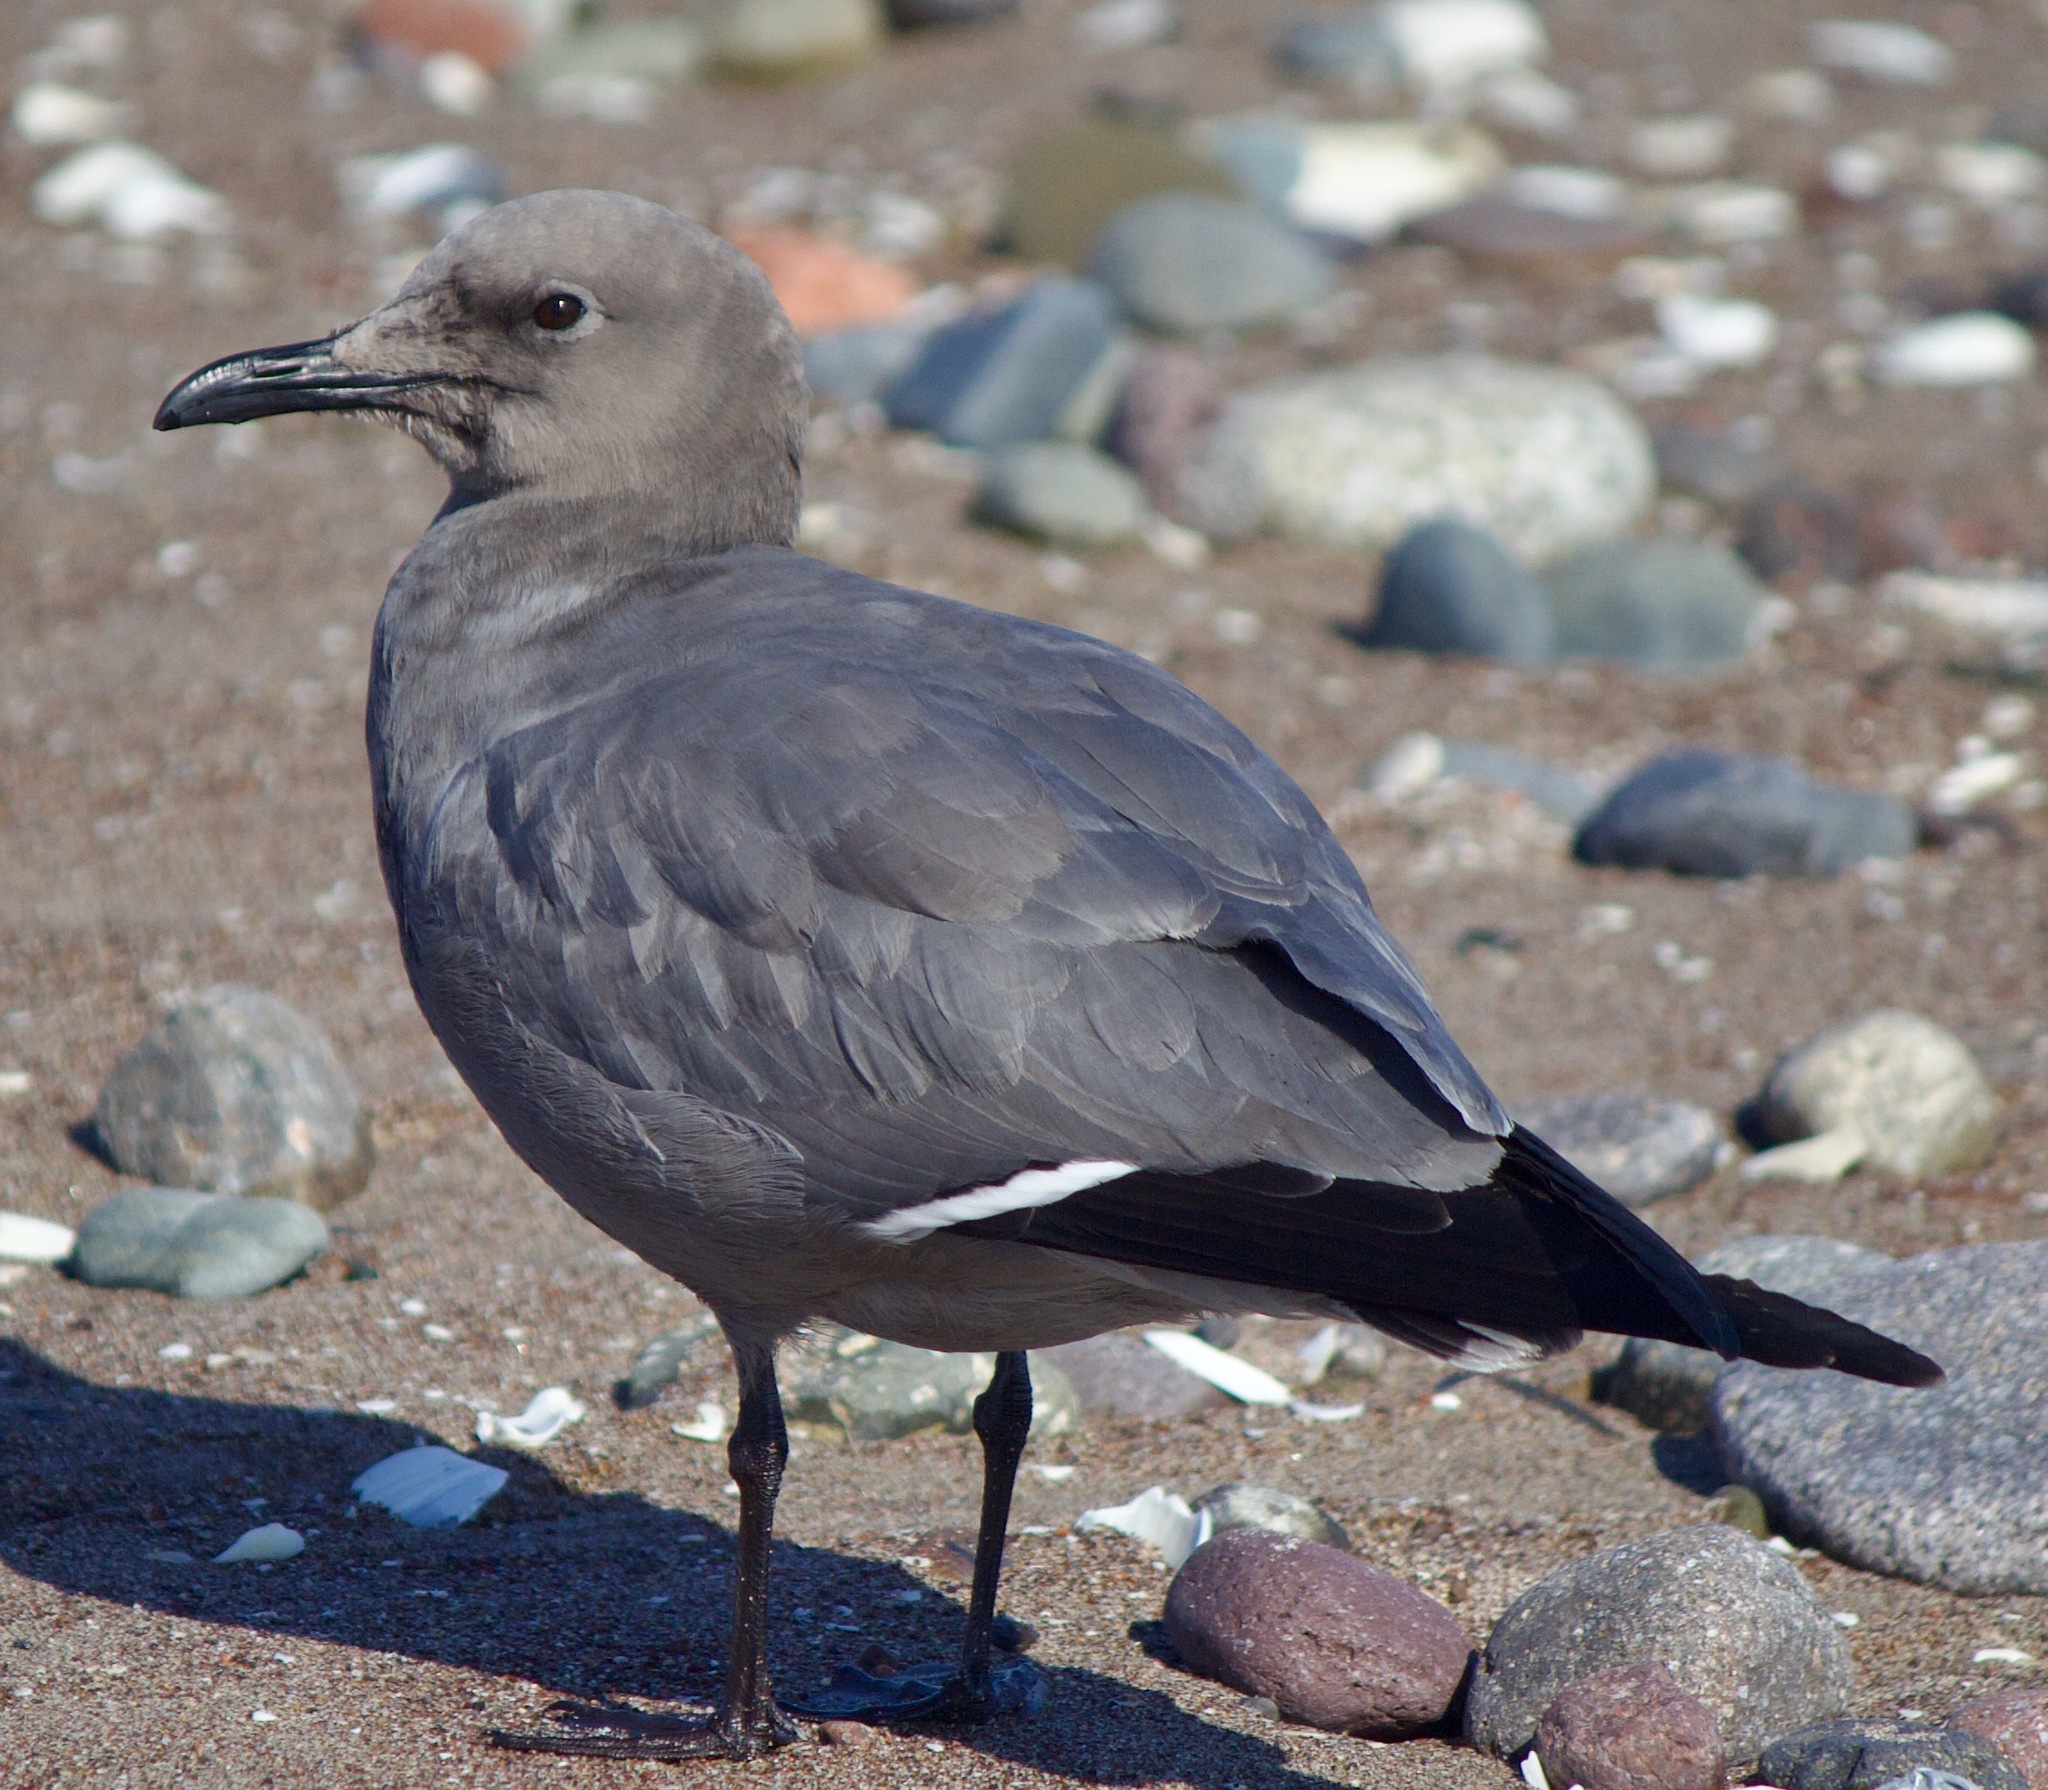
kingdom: Animalia
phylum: Chordata
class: Aves
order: Charadriiformes
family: Laridae
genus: Leucophaeus
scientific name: Leucophaeus modestus
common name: Gray gull
